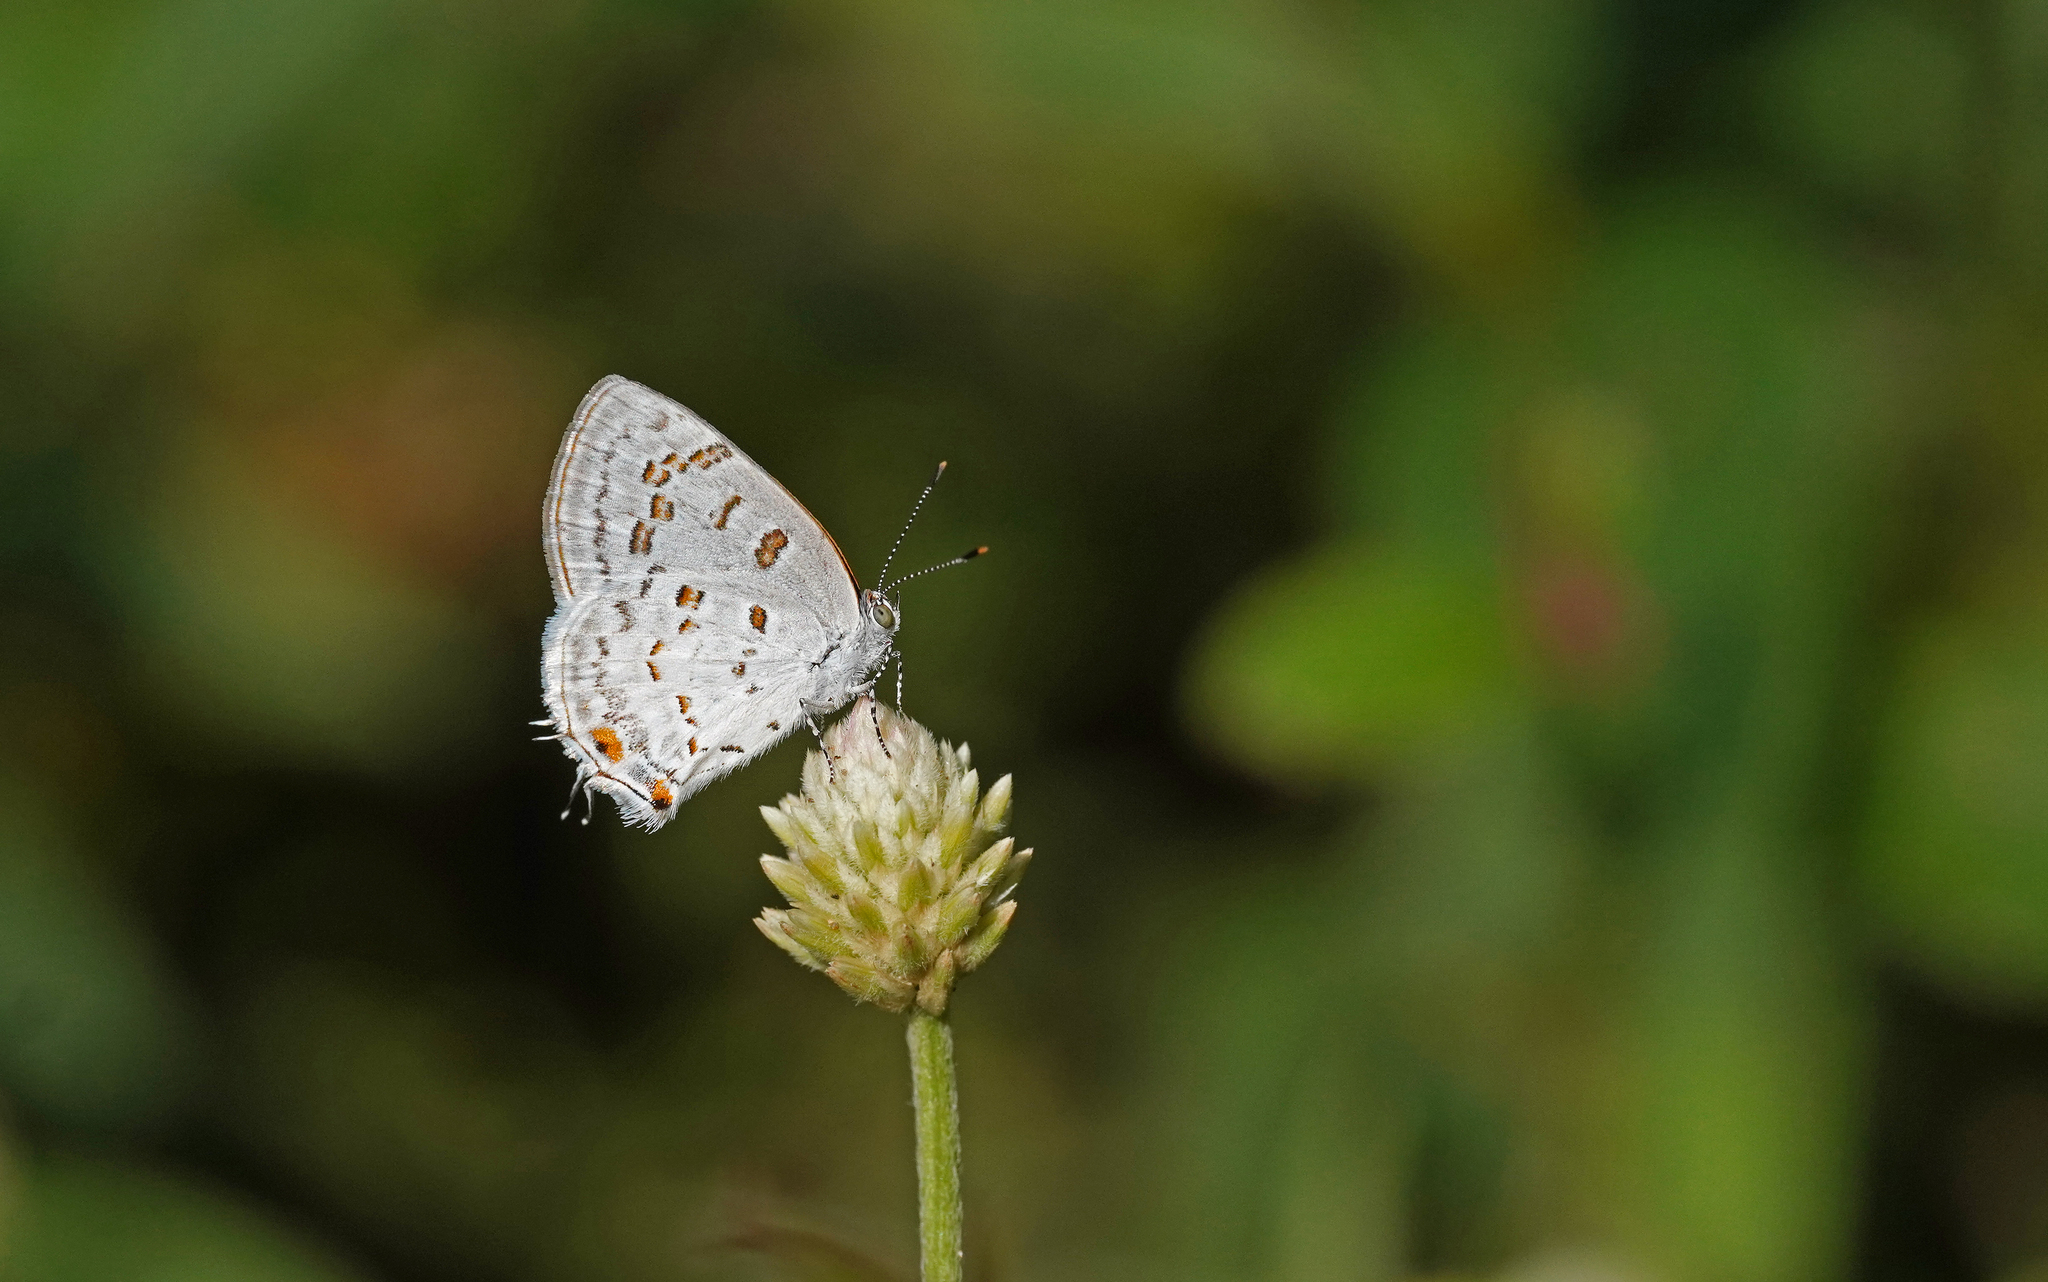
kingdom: Animalia
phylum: Arthropoda
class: Insecta
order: Lepidoptera
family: Lycaenidae
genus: Thecla
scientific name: Thecla una
